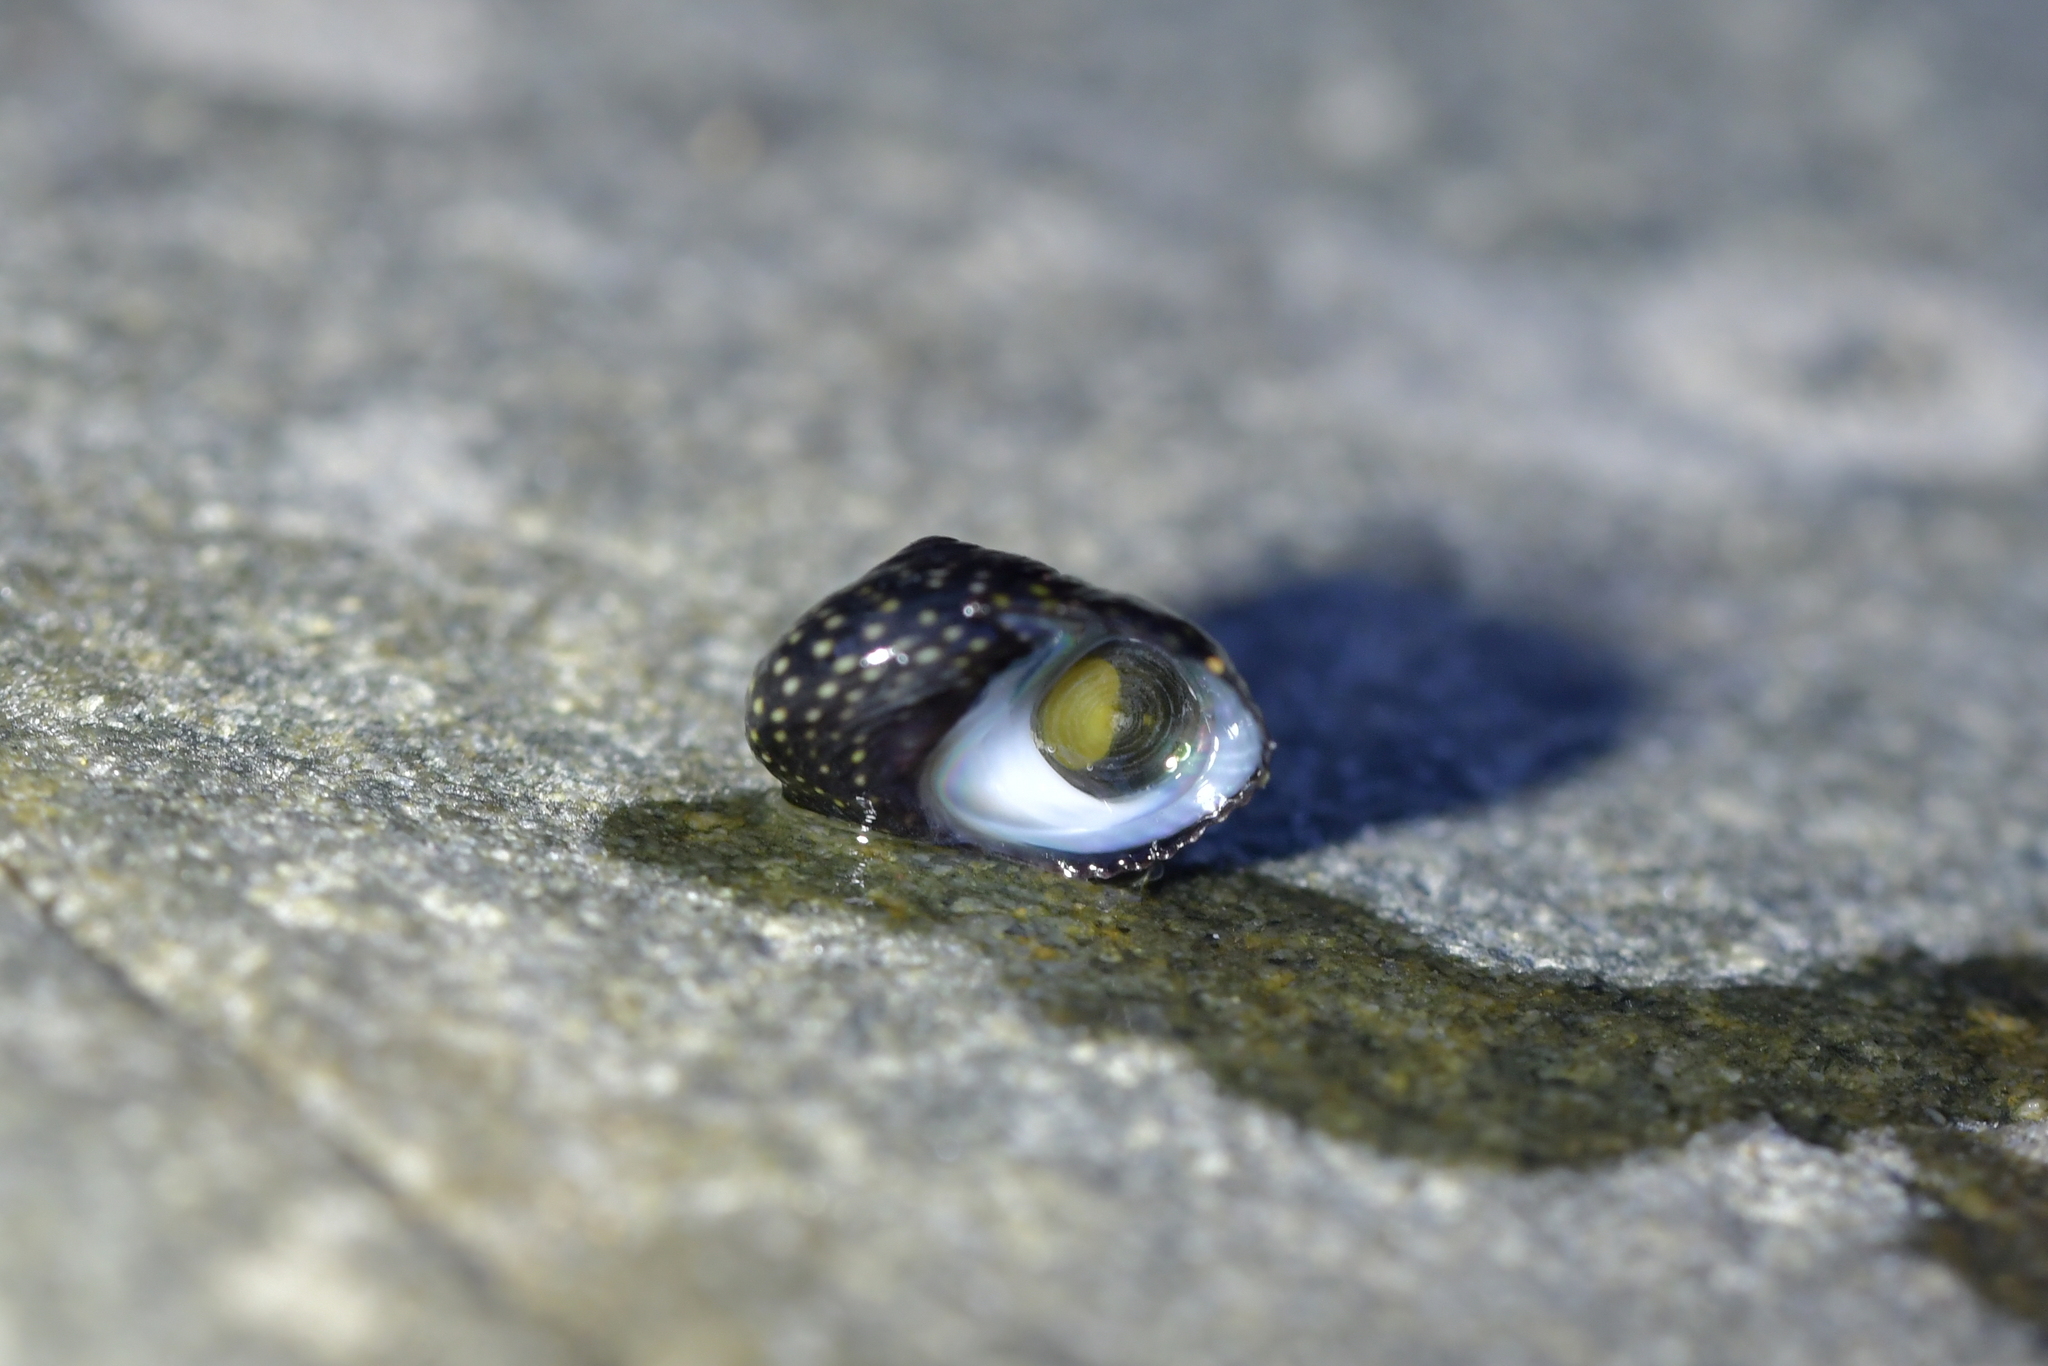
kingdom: Animalia
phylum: Mollusca
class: Gastropoda
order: Trochida
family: Trochidae
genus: Diloma
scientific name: Diloma aridum
